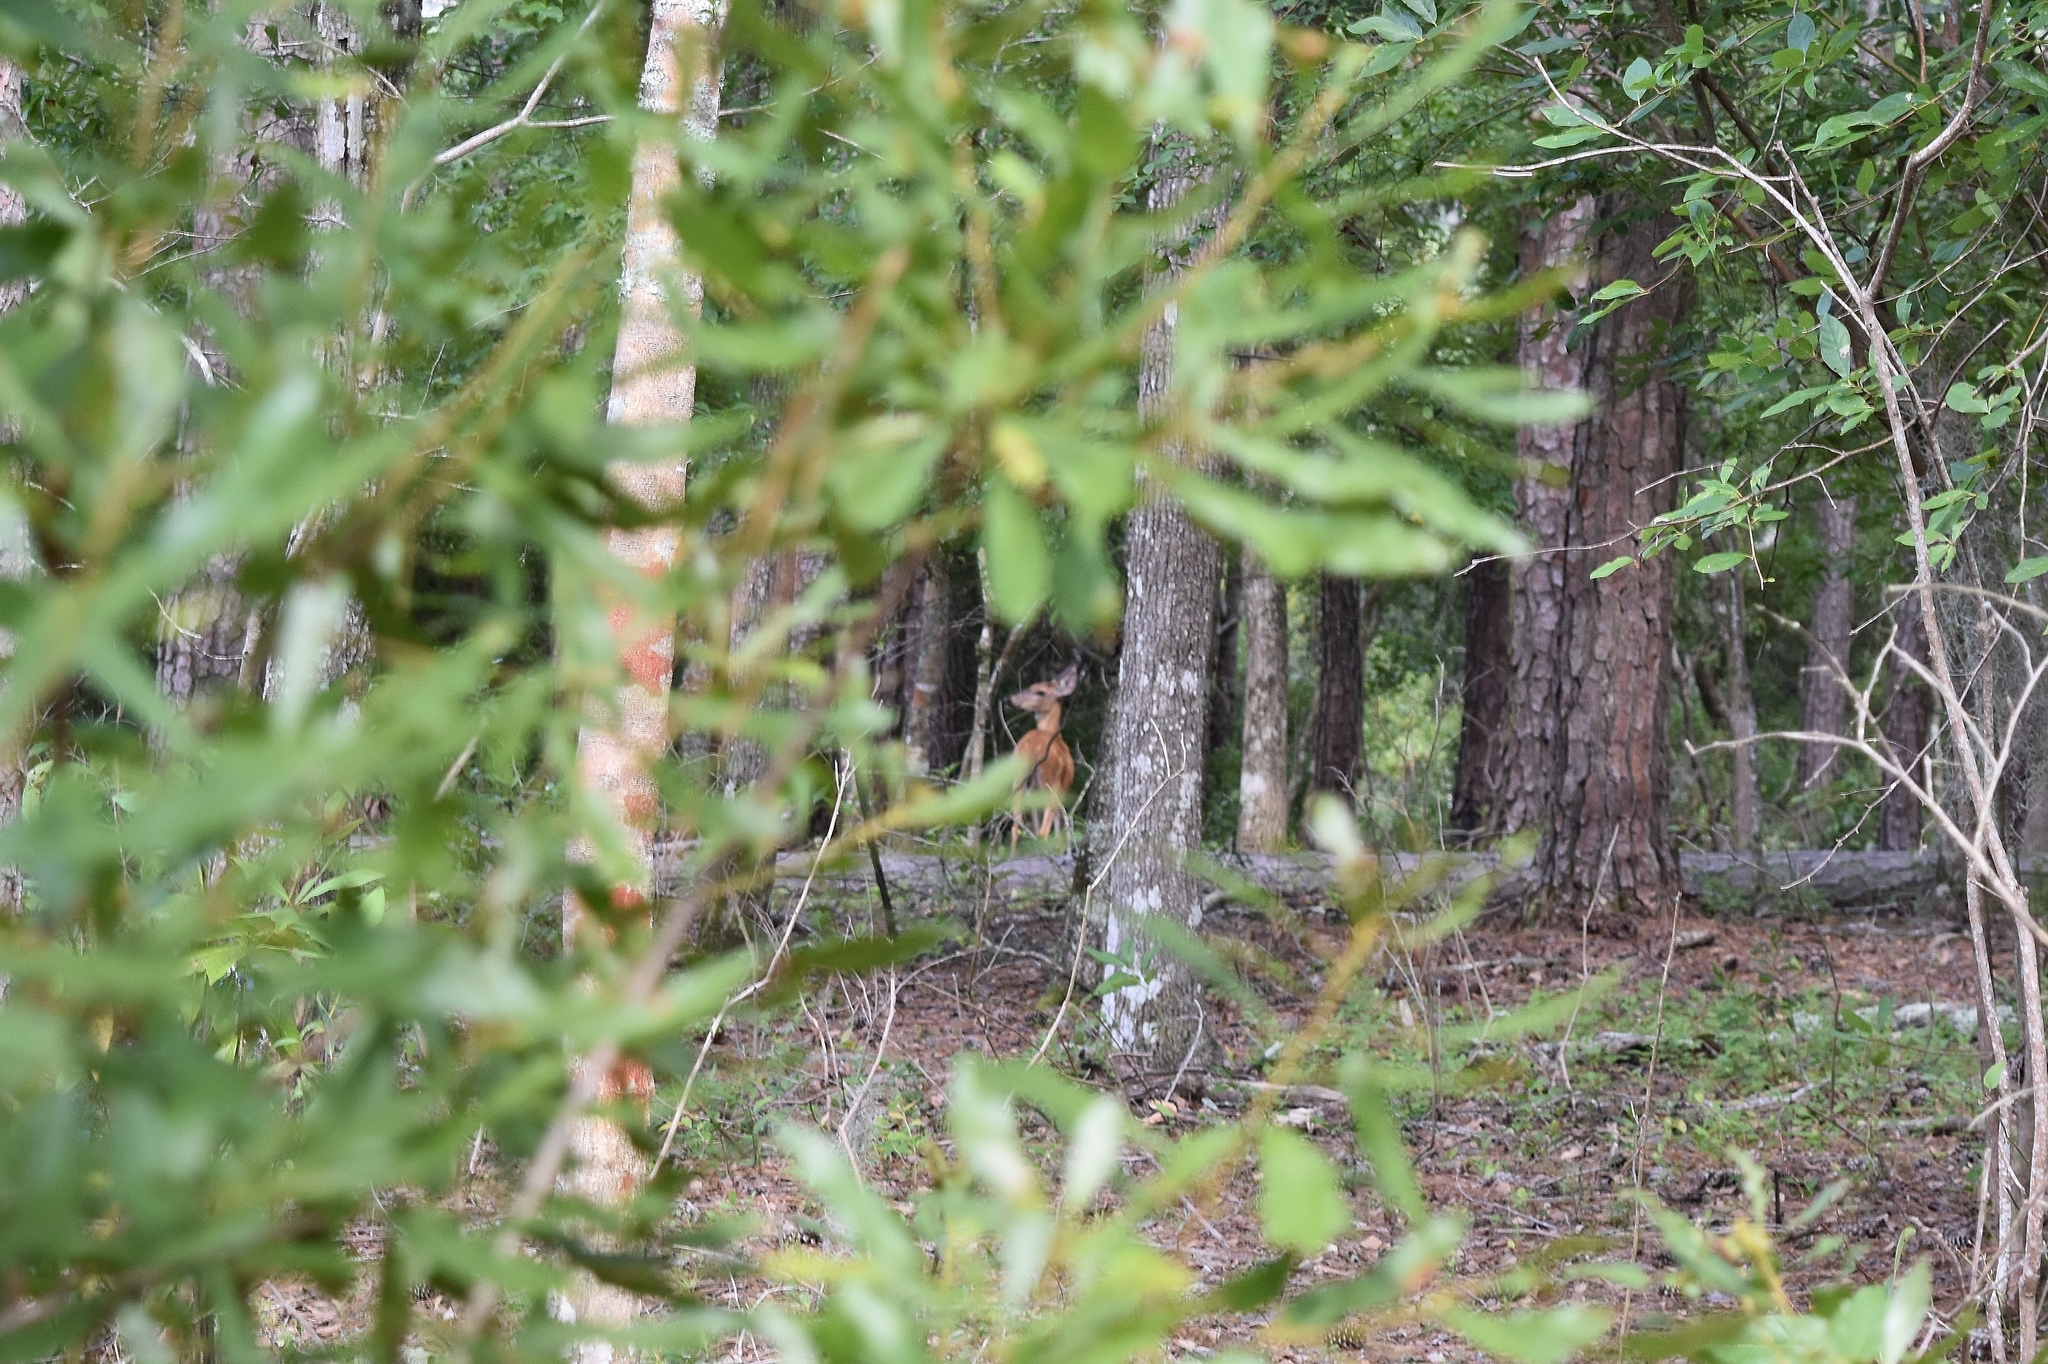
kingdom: Animalia
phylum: Chordata
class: Mammalia
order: Artiodactyla
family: Cervidae
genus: Odocoileus
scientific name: Odocoileus virginianus
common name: White-tailed deer
